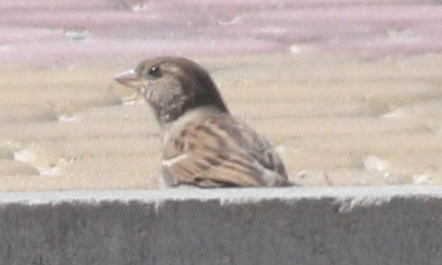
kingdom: Animalia
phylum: Chordata
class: Aves
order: Passeriformes
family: Passeridae
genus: Passer
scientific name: Passer domesticus
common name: House sparrow
